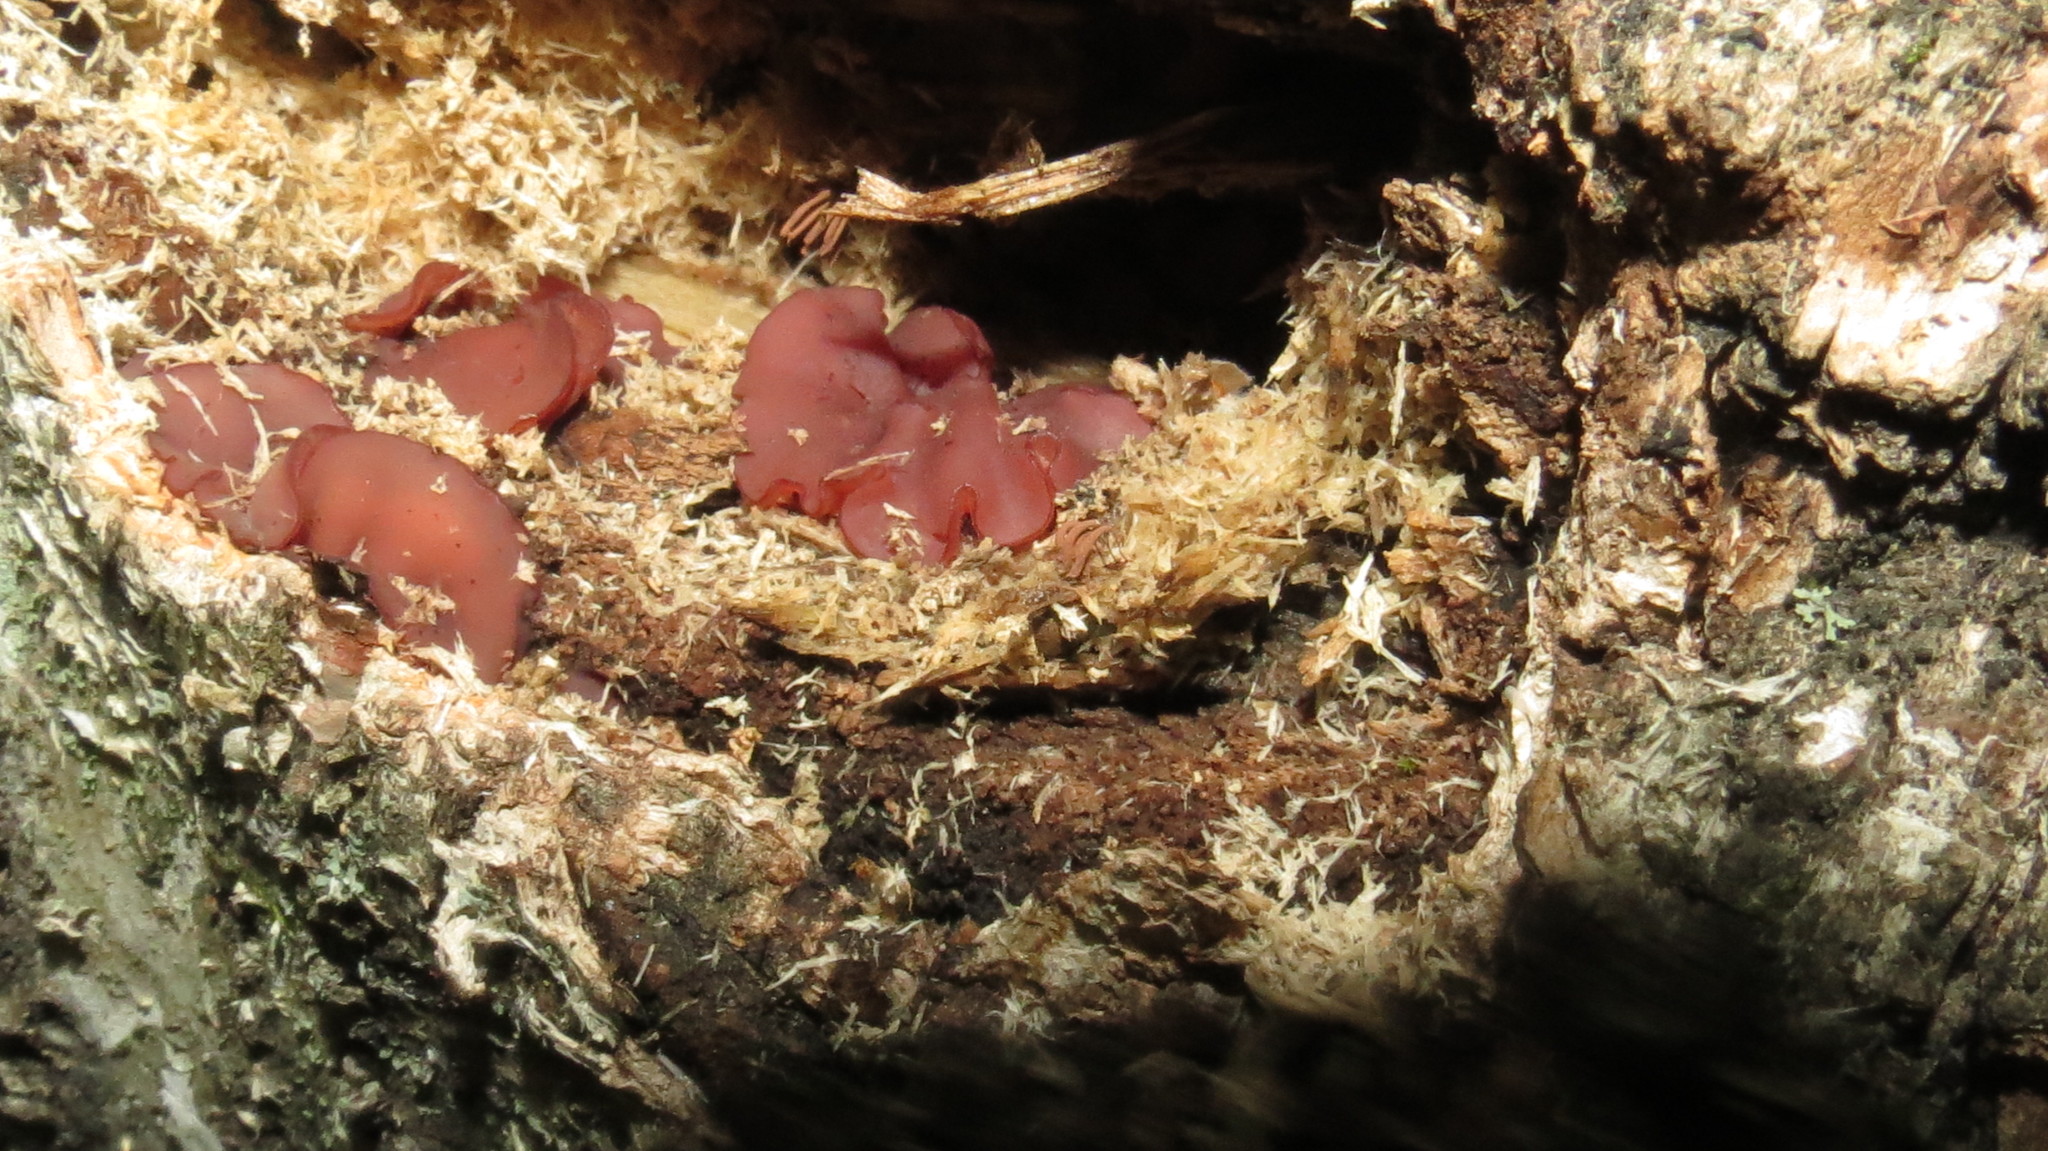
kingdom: Fungi
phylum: Ascomycota
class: Leotiomycetes
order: Helotiales
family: Gelatinodiscaceae
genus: Ascocoryne
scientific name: Ascocoryne cylichnium
